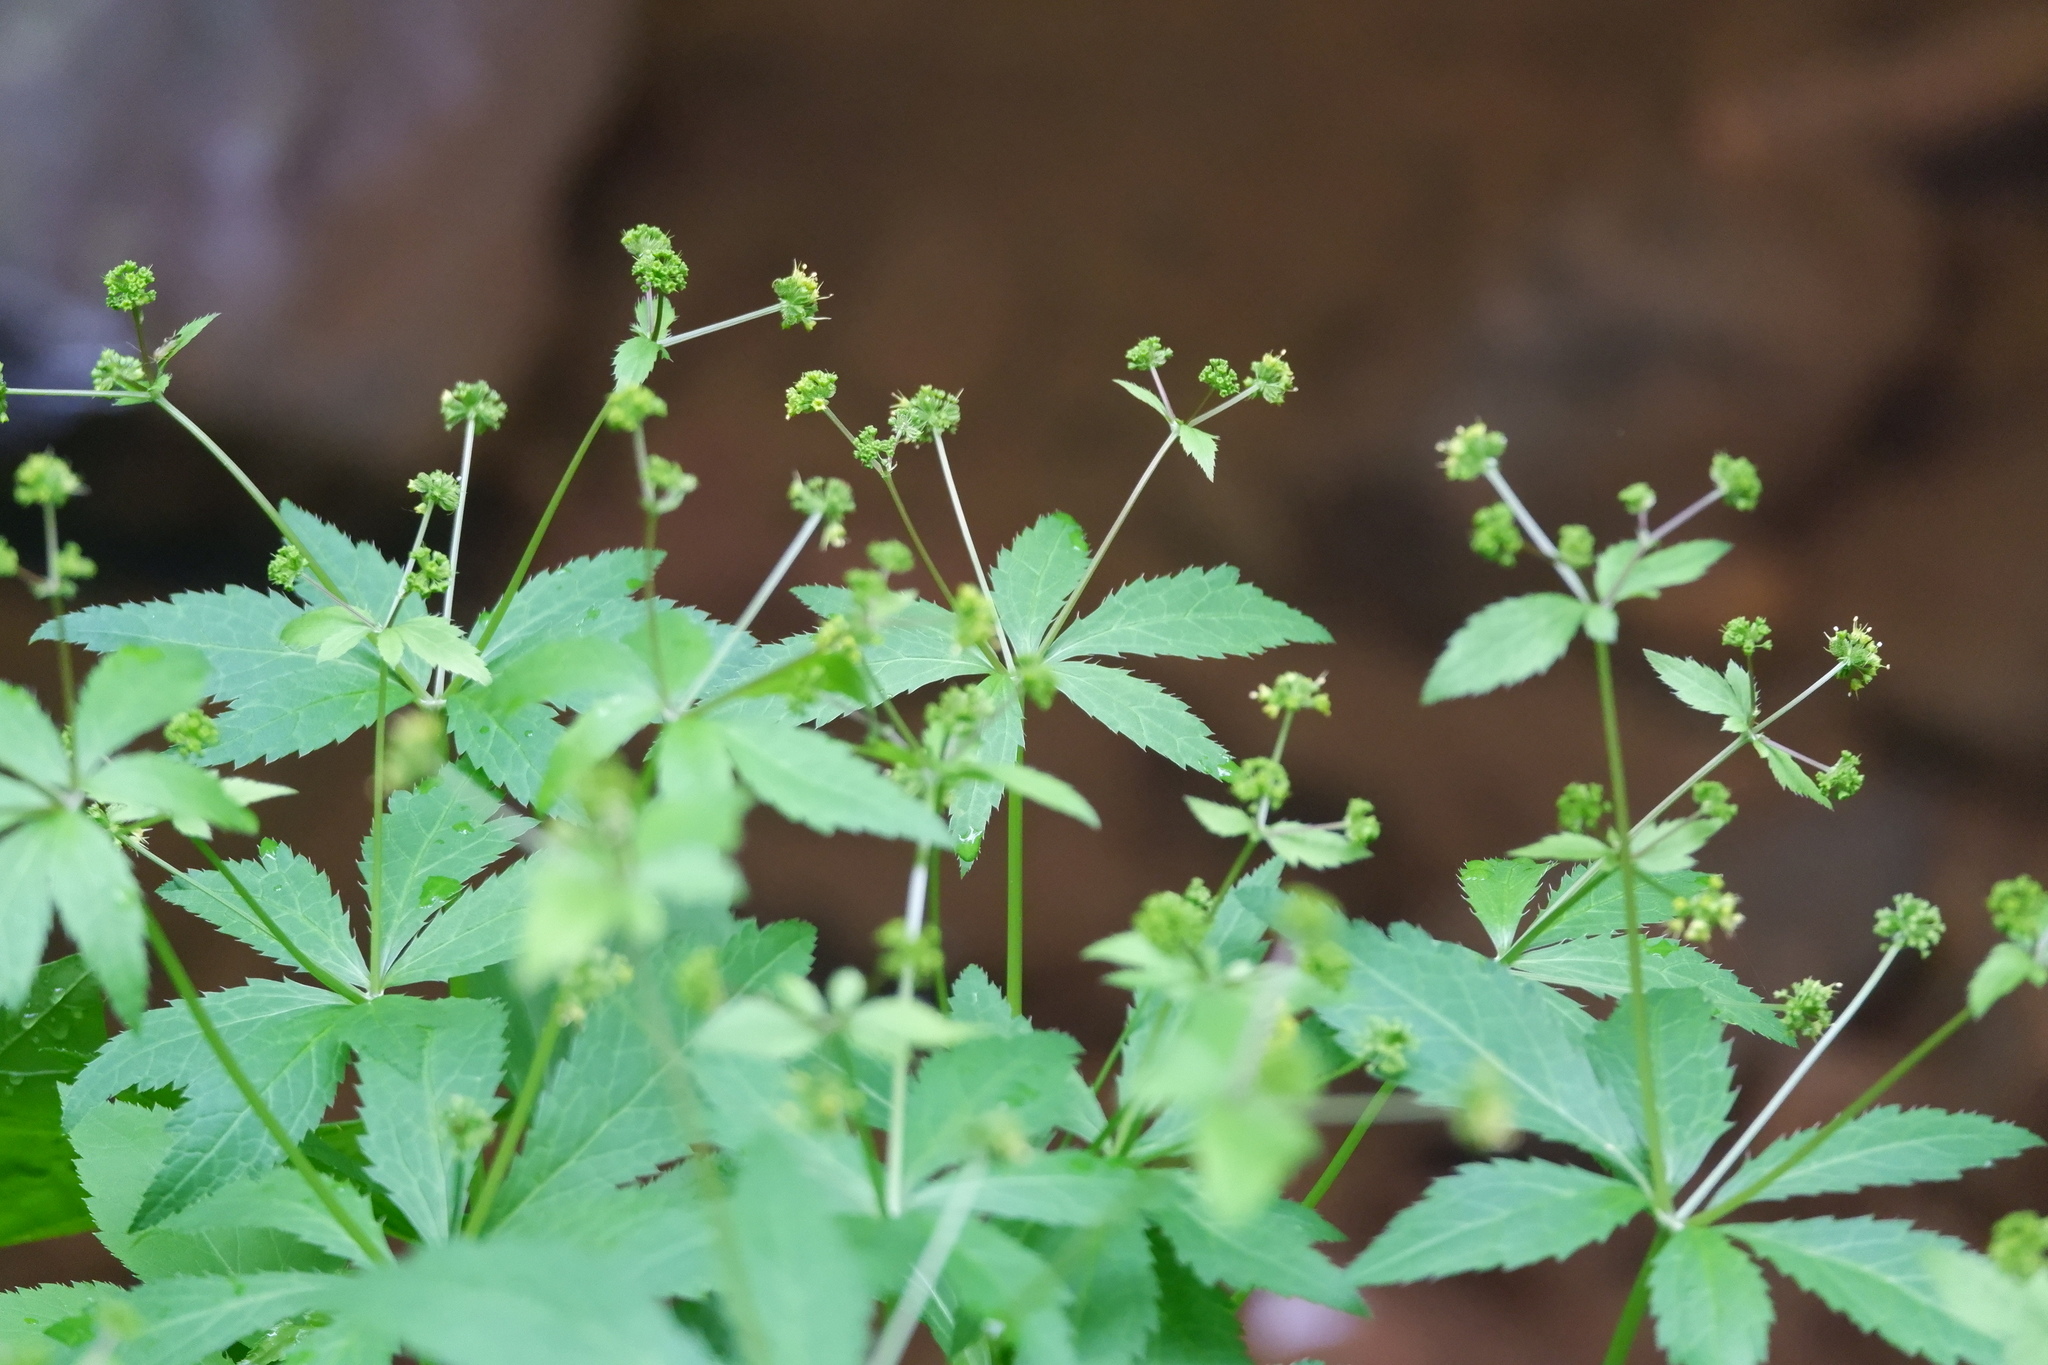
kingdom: Plantae
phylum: Tracheophyta
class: Magnoliopsida
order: Apiales
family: Apiaceae
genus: Sanicula
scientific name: Sanicula odorata
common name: Cluster sanicle
